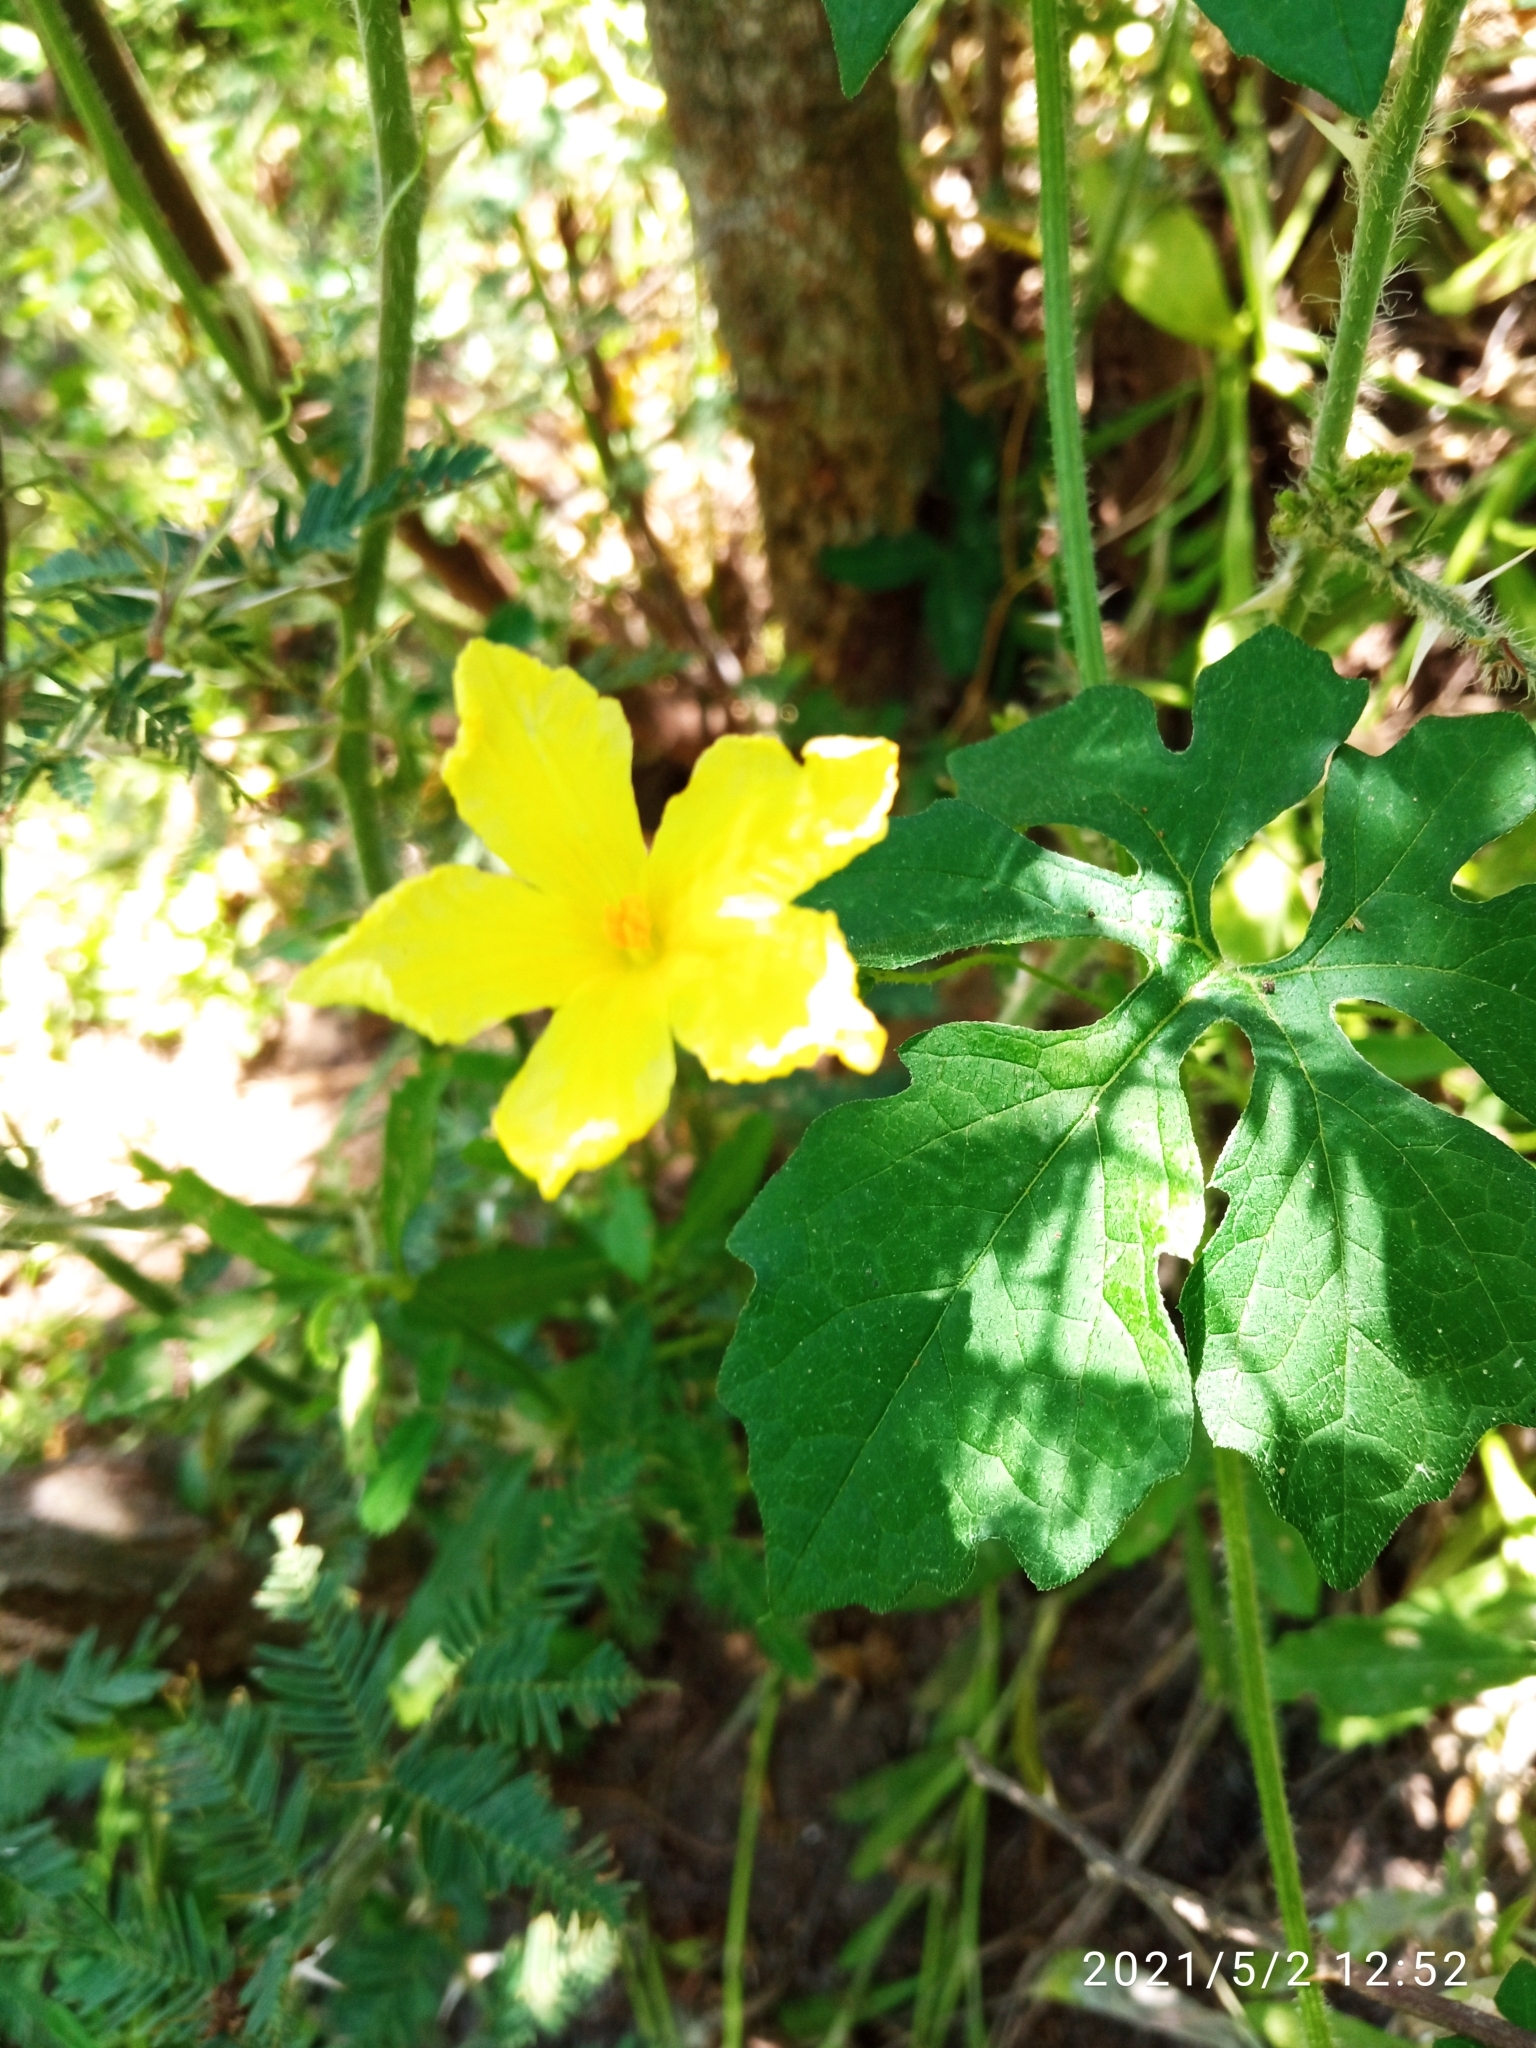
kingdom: Plantae
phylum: Tracheophyta
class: Magnoliopsida
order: Cucurbitales
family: Cucurbitaceae
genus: Momordica
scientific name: Momordica charantia
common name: Balsampear
